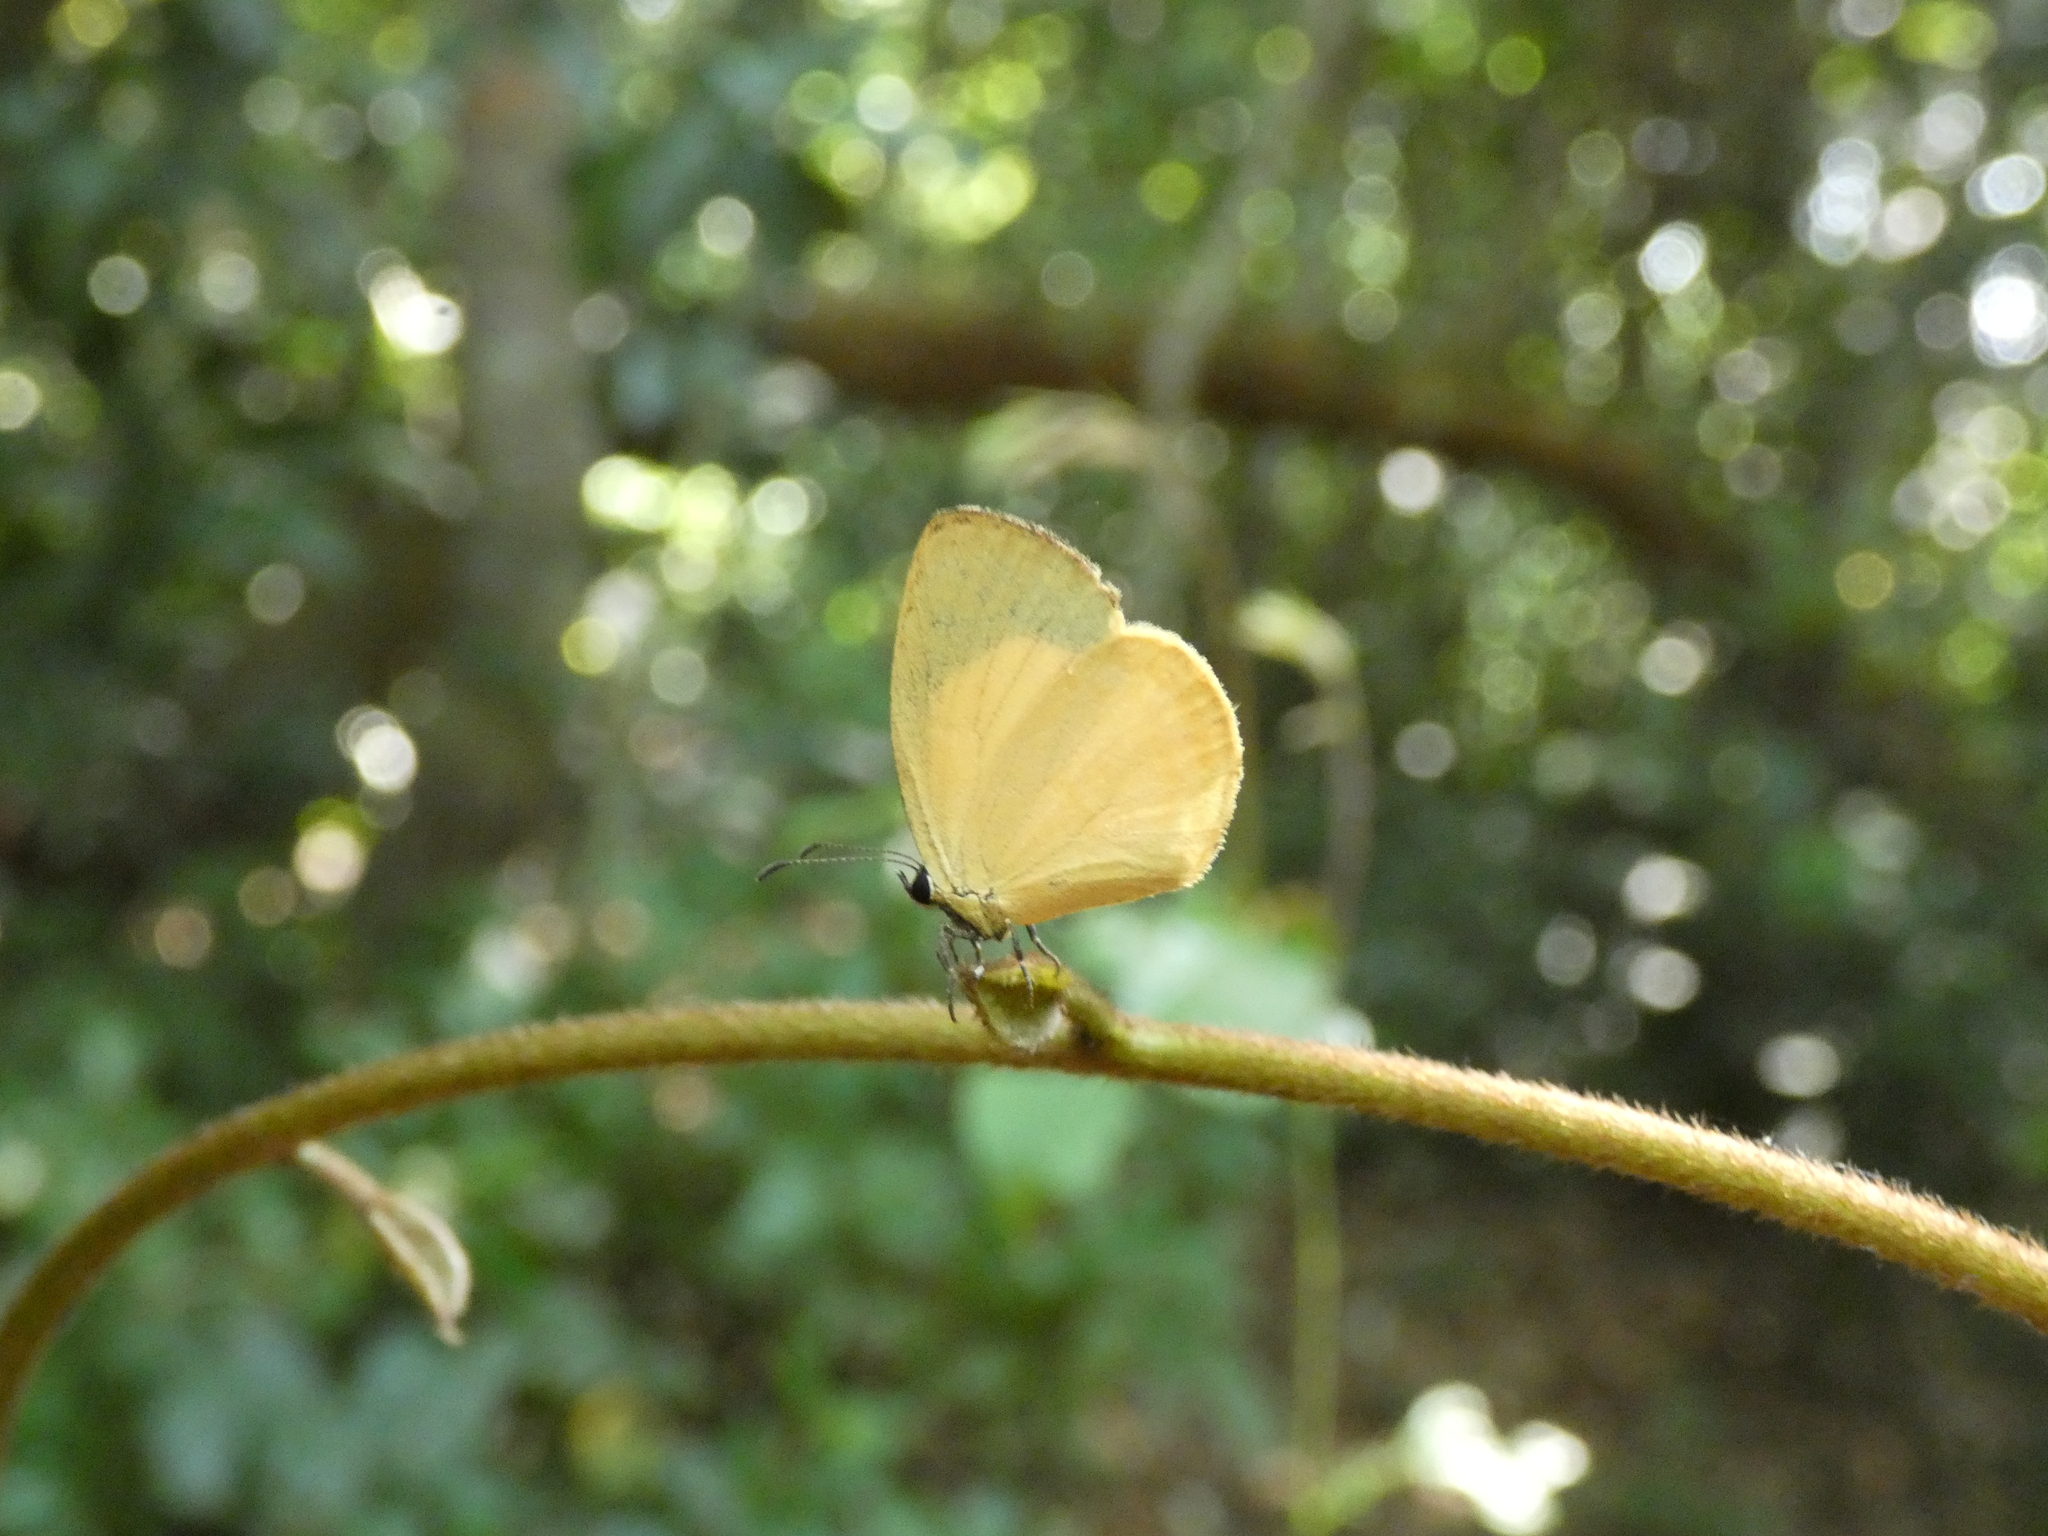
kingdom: Animalia
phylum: Arthropoda
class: Insecta
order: Lepidoptera
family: Lycaenidae
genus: Liptena
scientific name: Liptena xanthostola
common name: Yellow liptena
